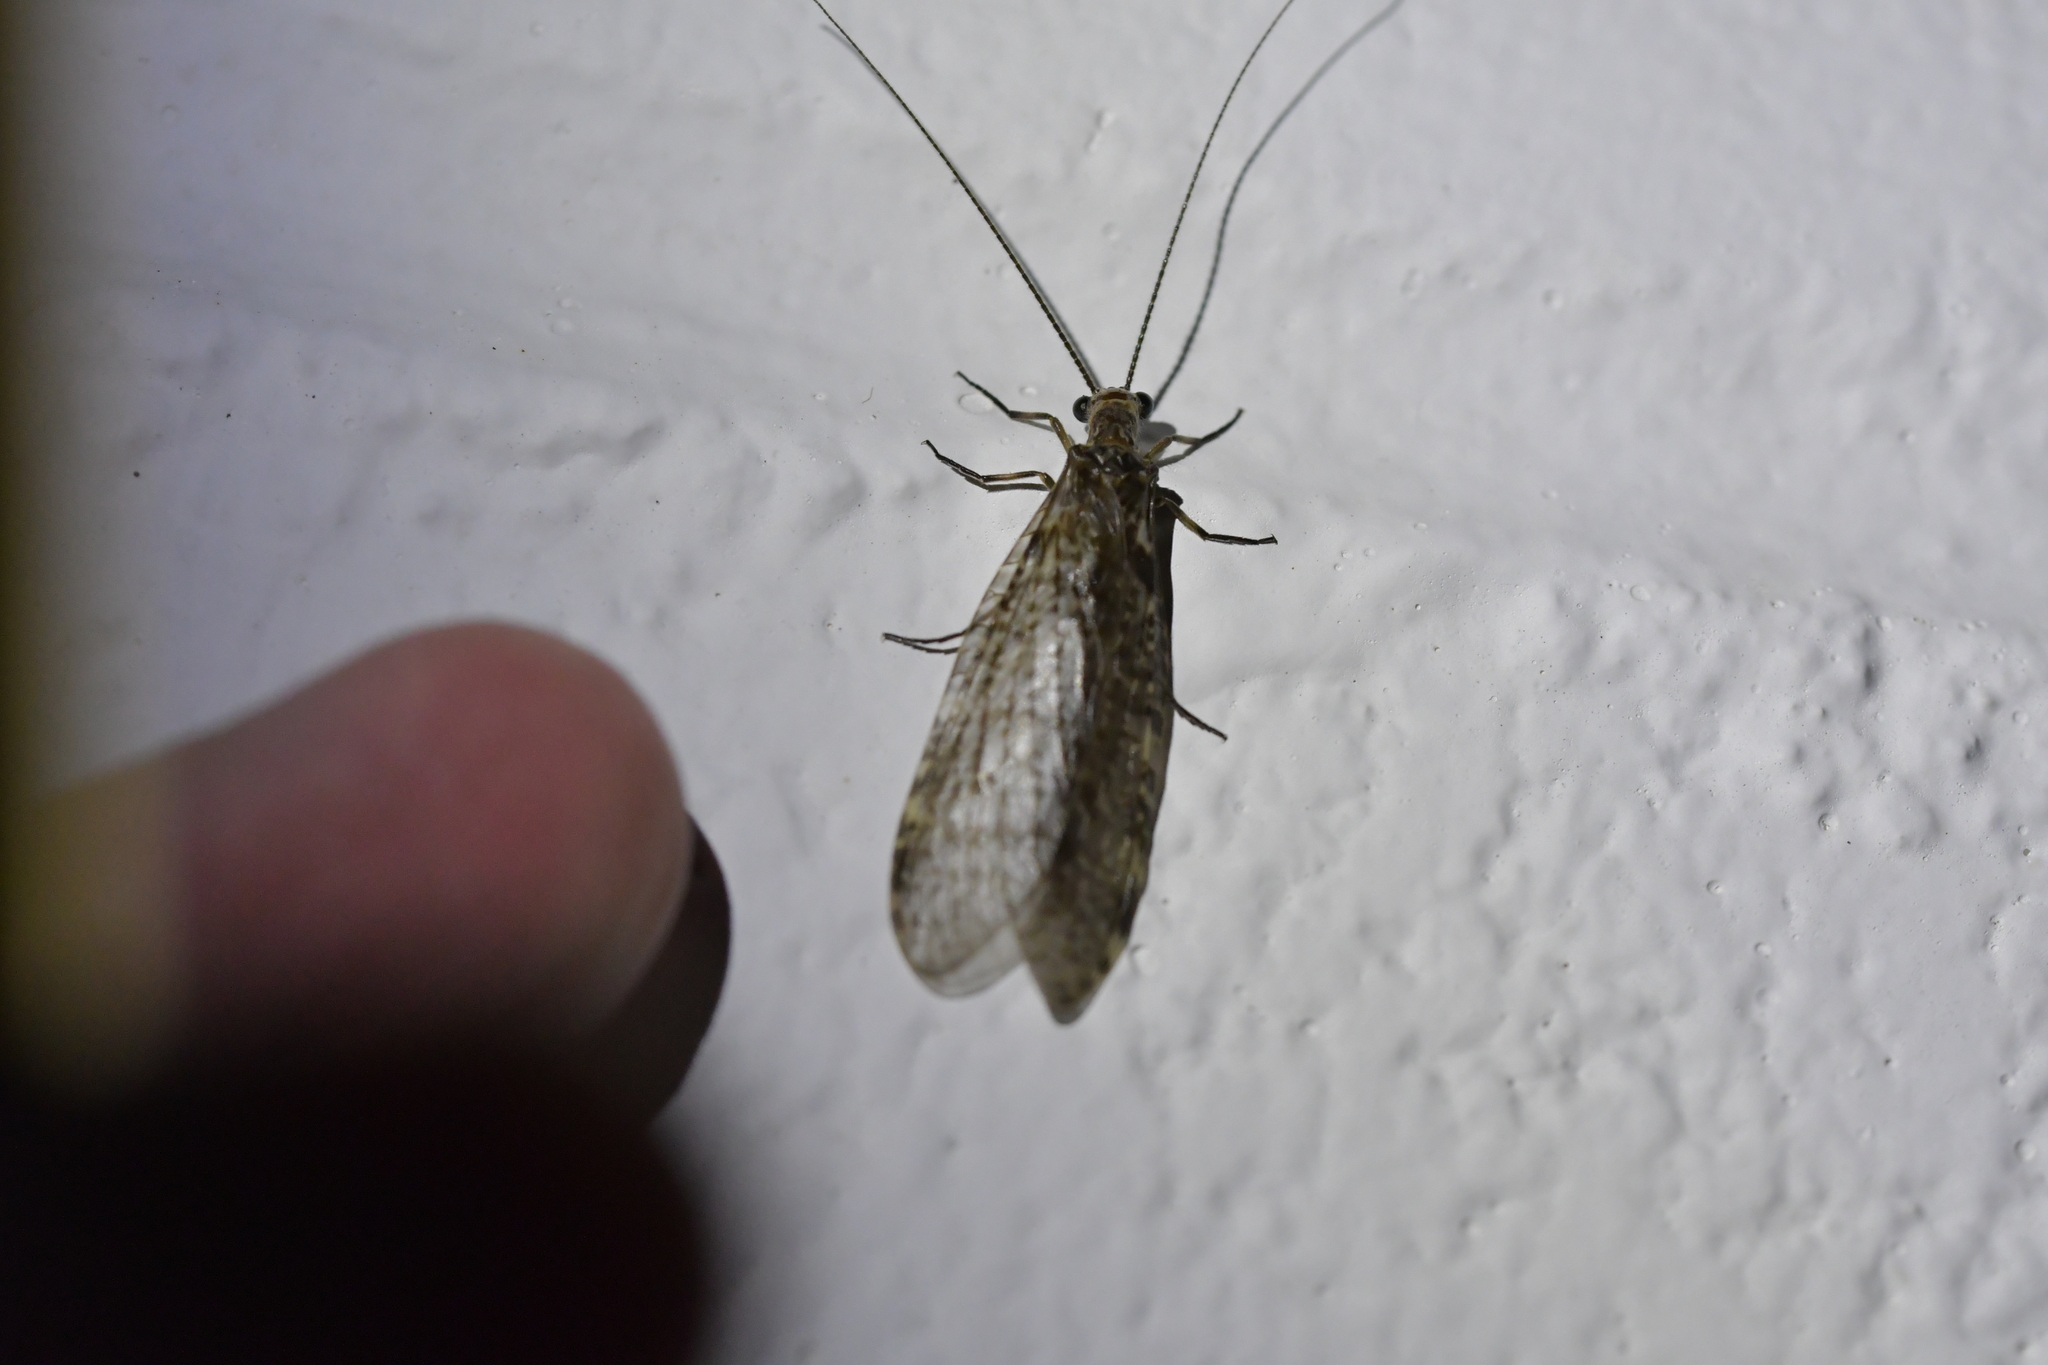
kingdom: Animalia
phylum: Arthropoda
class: Insecta
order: Megaloptera
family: Corydalidae
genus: Archichauliodes
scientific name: Archichauliodes diversus
